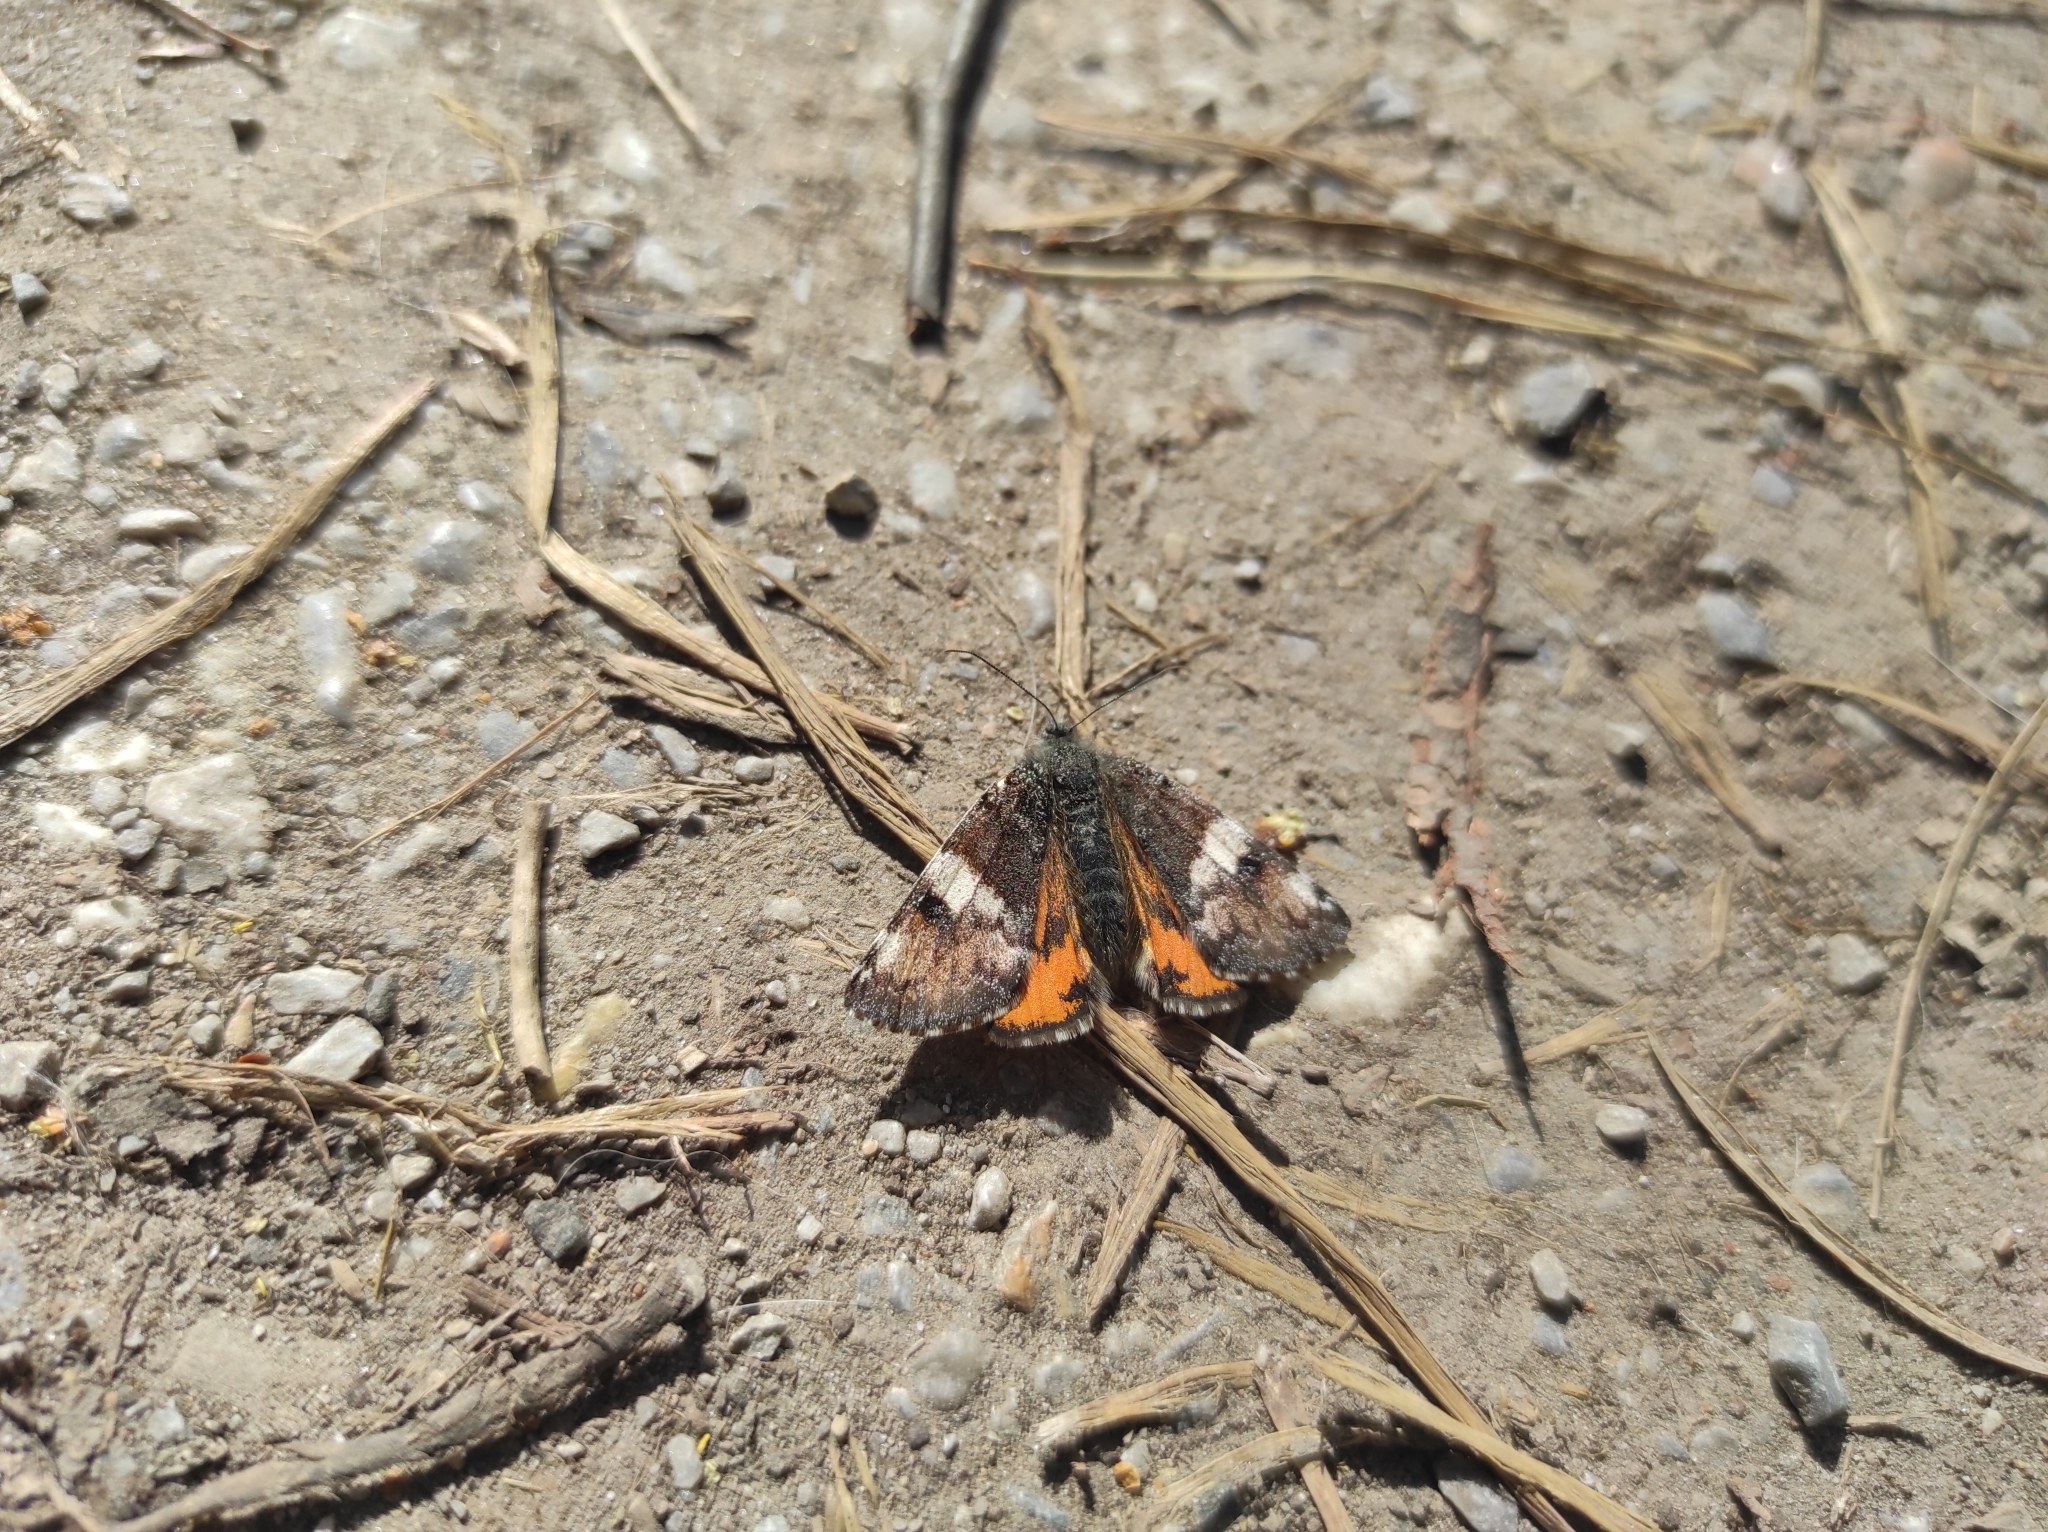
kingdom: Animalia
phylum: Arthropoda
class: Insecta
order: Lepidoptera
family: Geometridae
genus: Archiearis
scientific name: Archiearis parthenias
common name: Orange underwing
